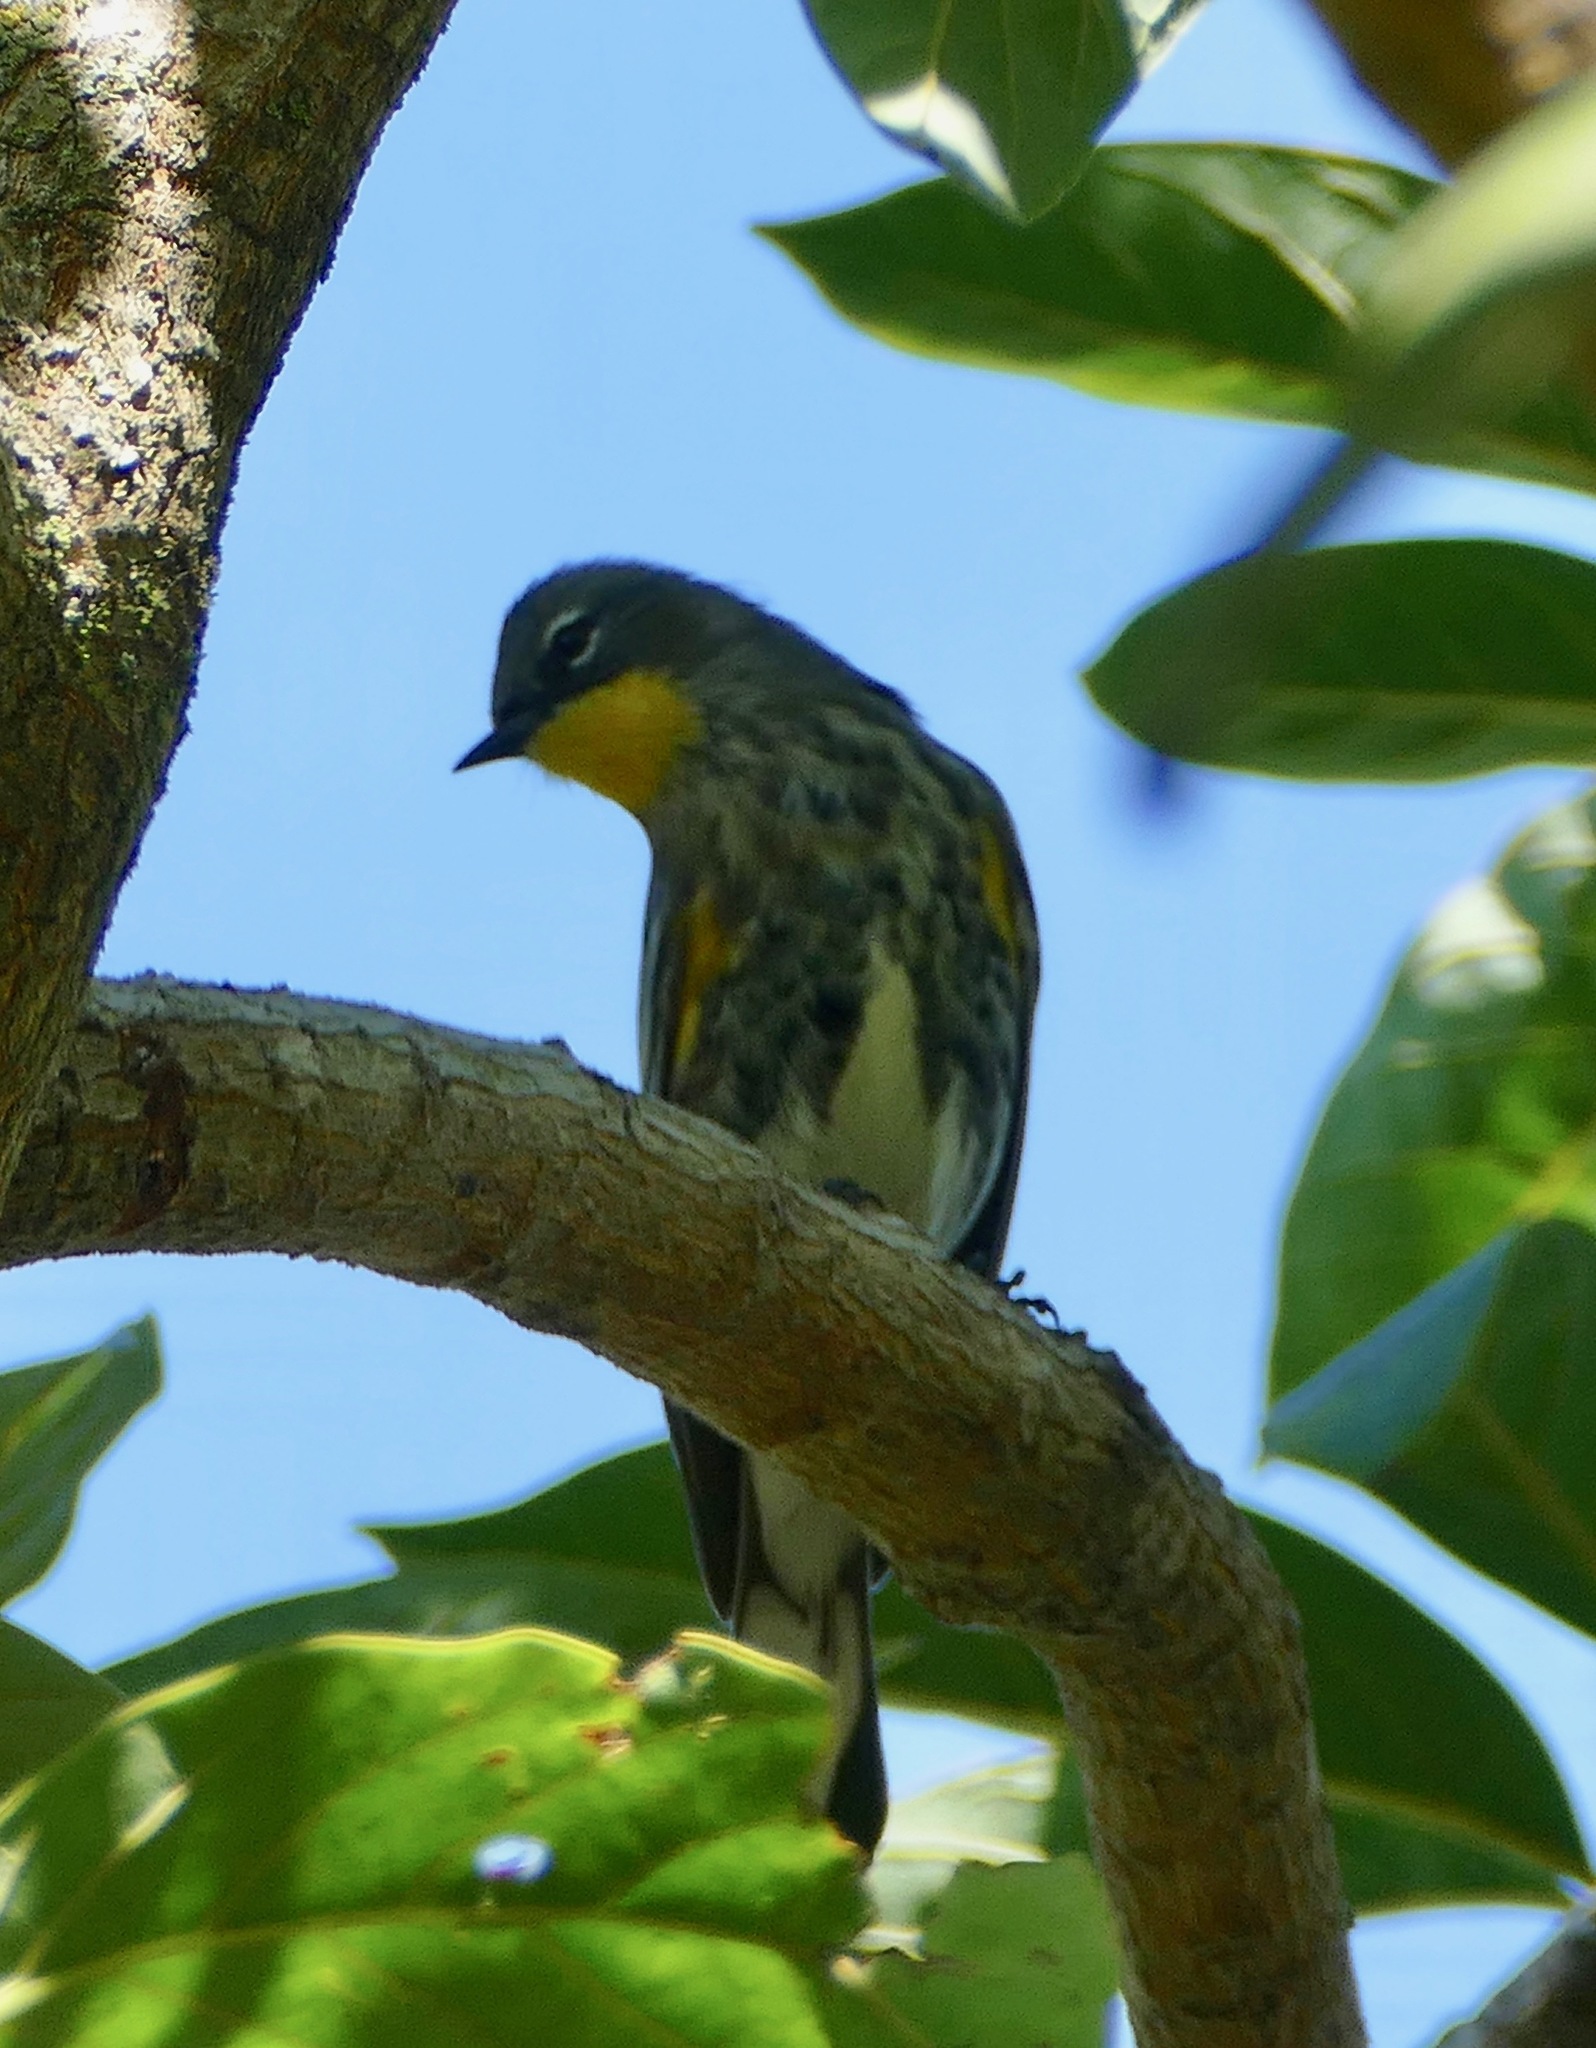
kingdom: Animalia
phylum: Chordata
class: Aves
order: Passeriformes
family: Parulidae
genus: Setophaga
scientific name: Setophaga coronata
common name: Myrtle warbler
